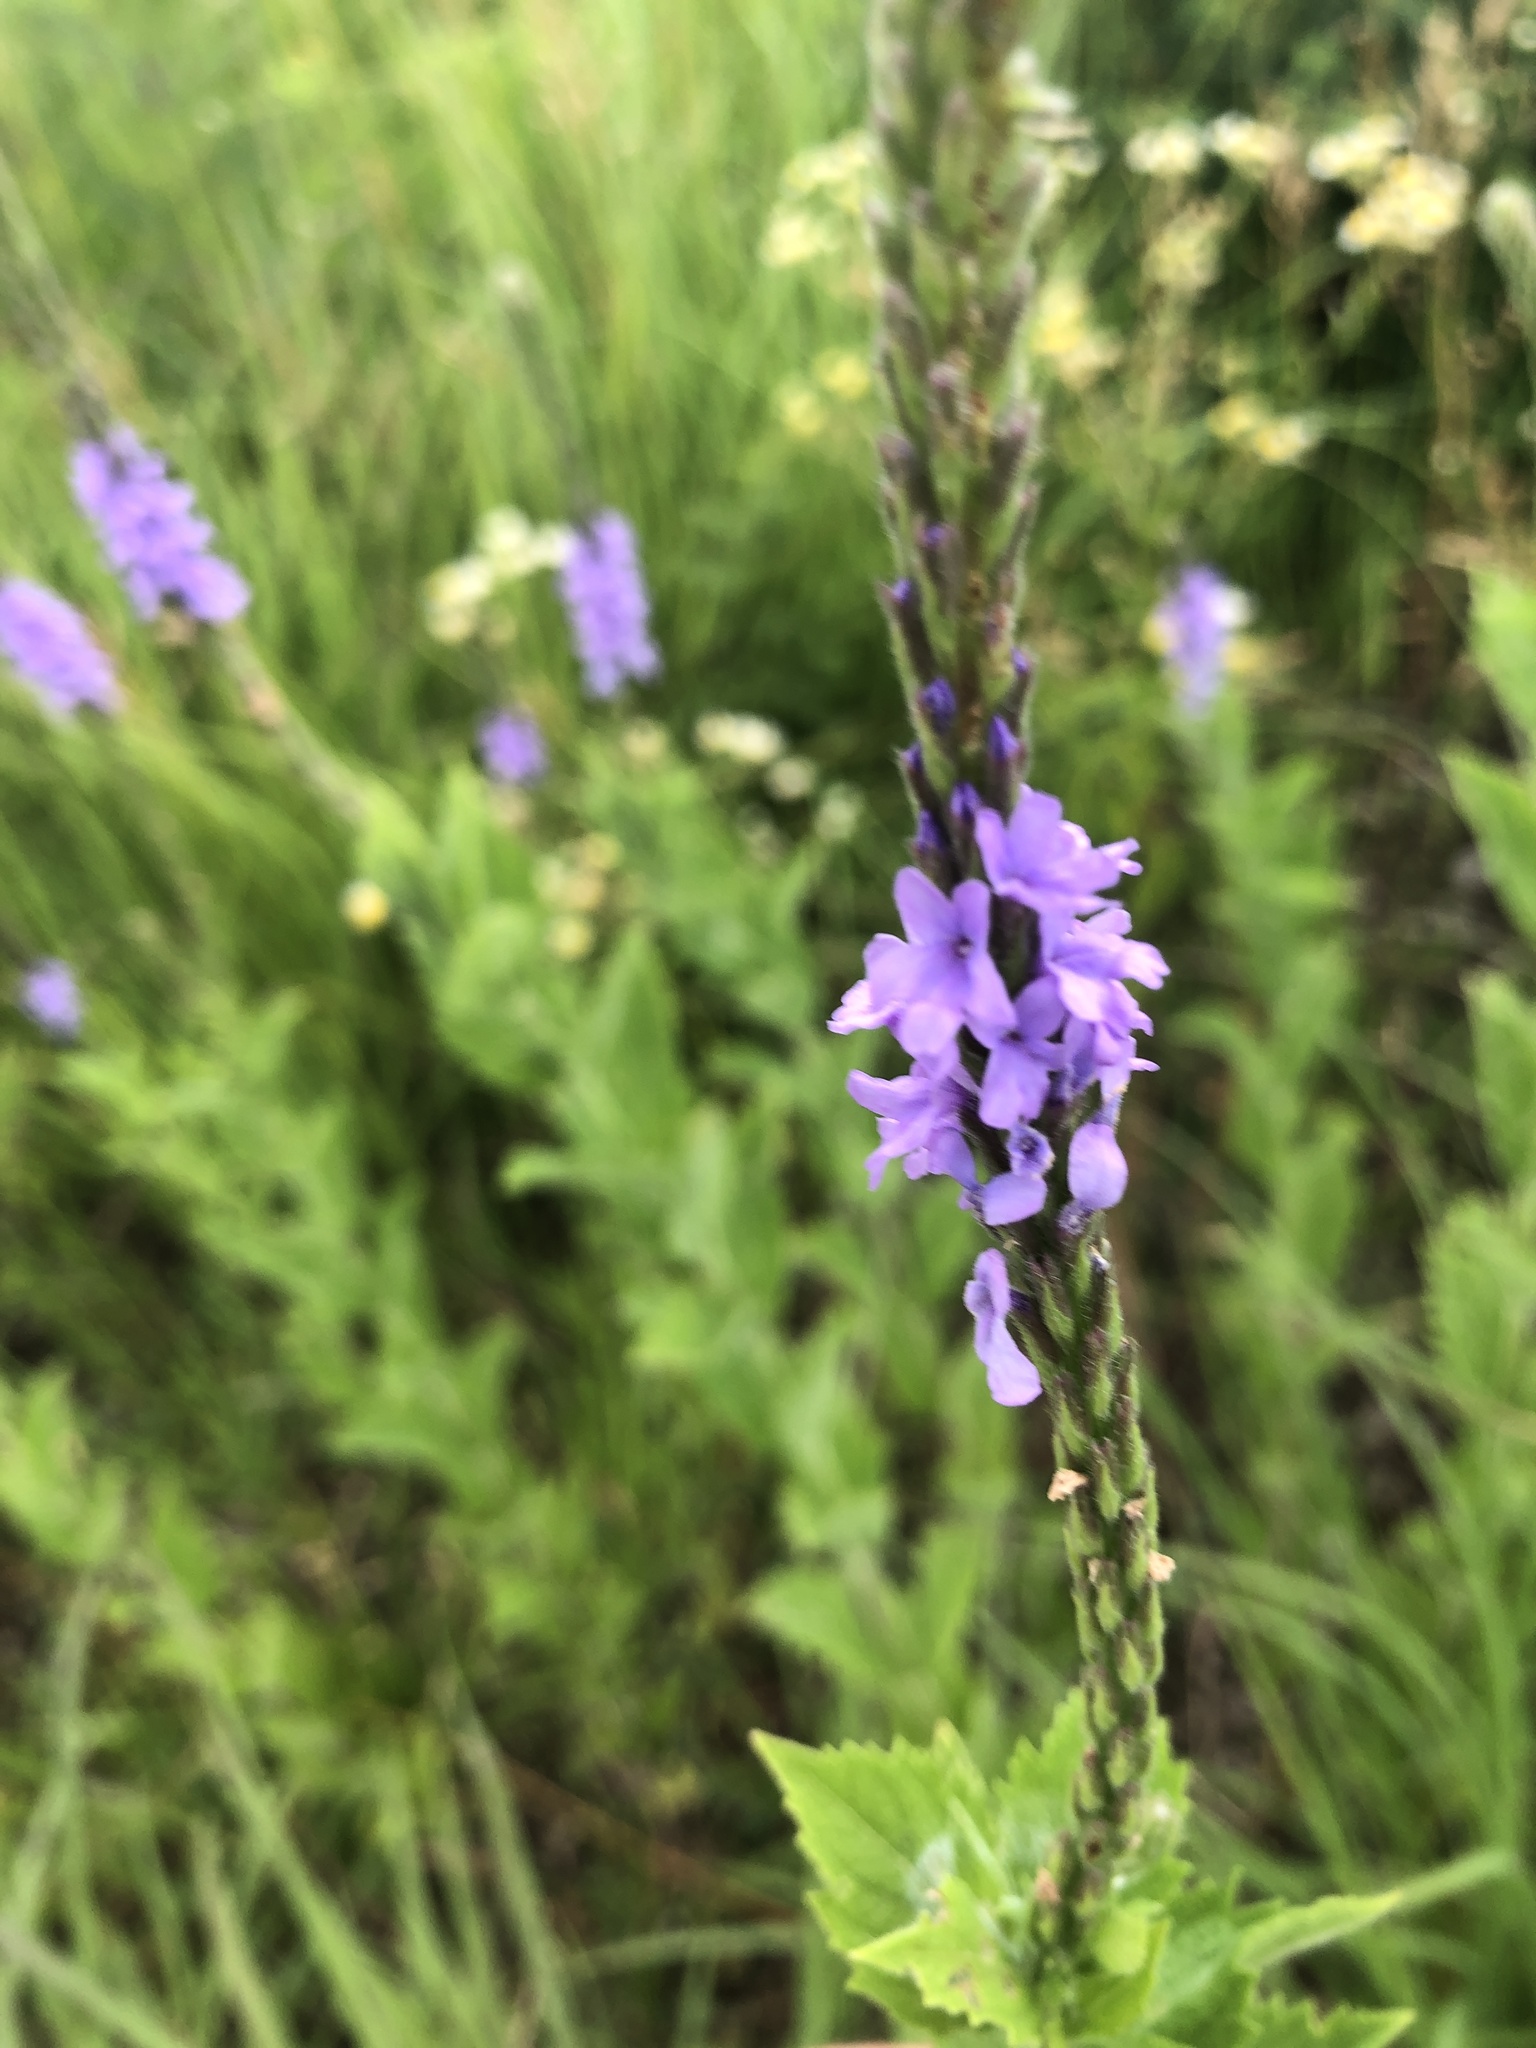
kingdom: Plantae
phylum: Tracheophyta
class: Magnoliopsida
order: Lamiales
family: Verbenaceae
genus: Verbena
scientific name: Verbena stricta
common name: Hoary vervain
